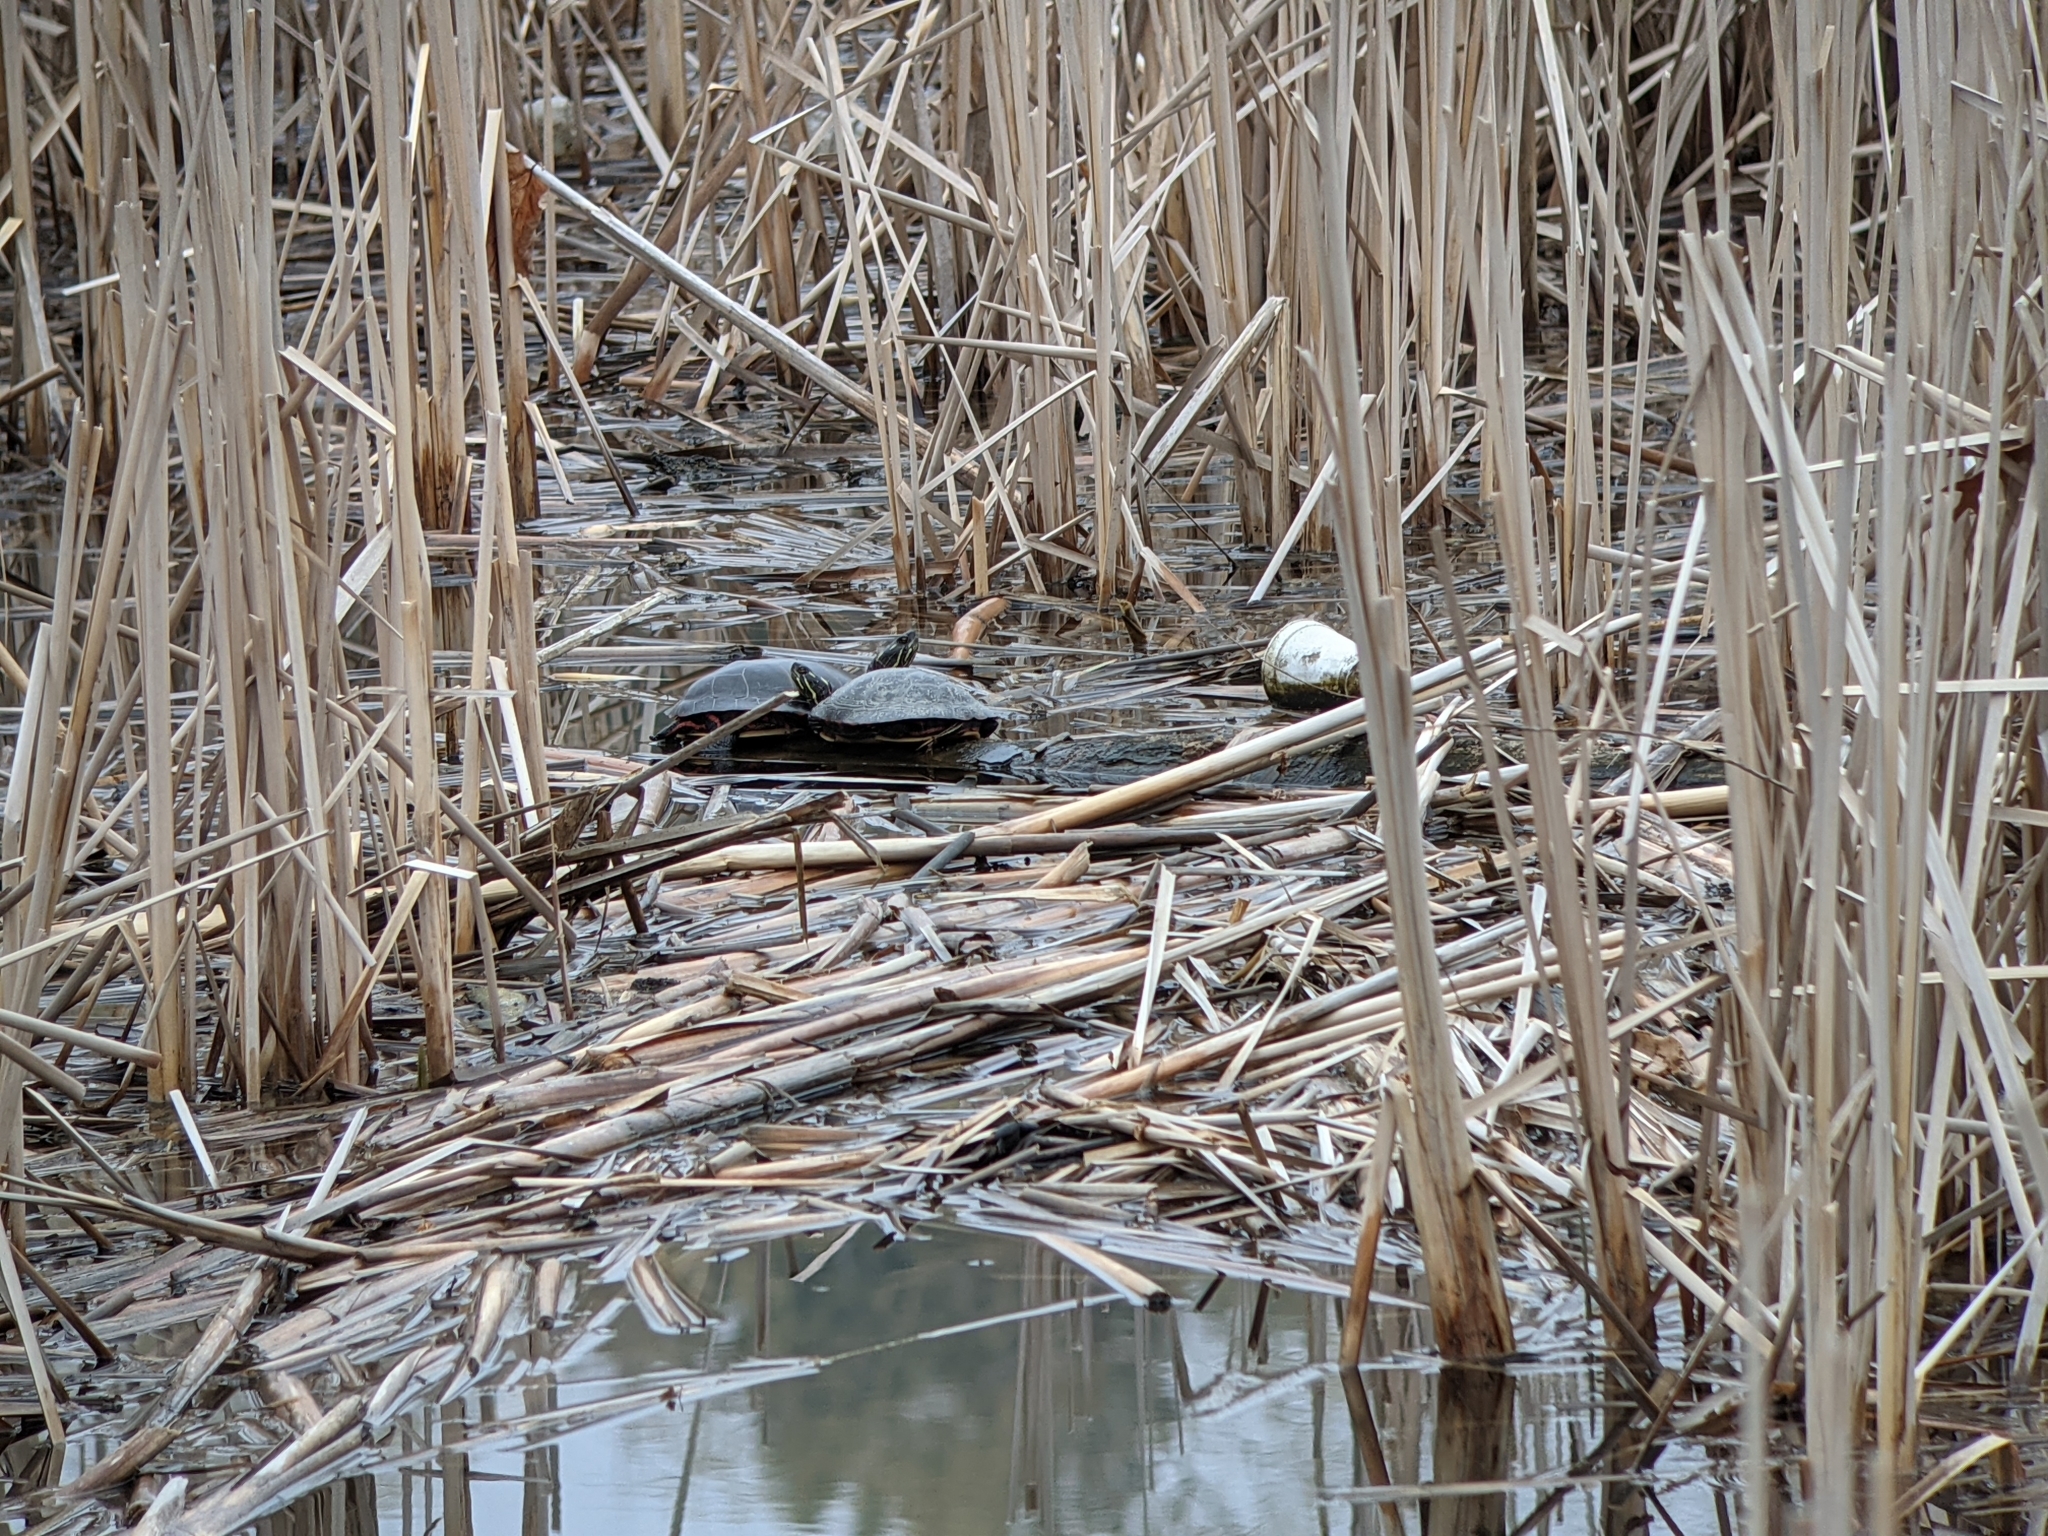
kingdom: Animalia
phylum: Chordata
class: Testudines
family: Emydidae
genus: Chrysemys
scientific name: Chrysemys picta
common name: Painted turtle
